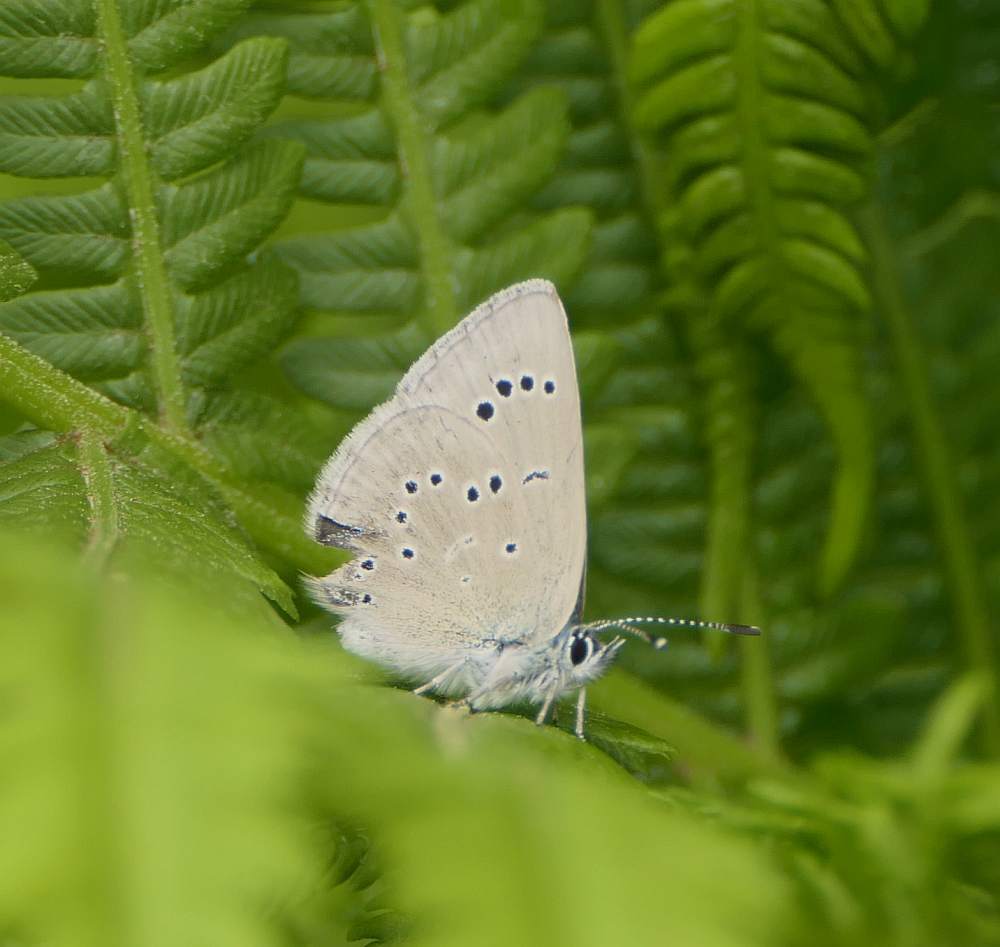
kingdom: Animalia
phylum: Arthropoda
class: Insecta
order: Lepidoptera
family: Lycaenidae
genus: Glaucopsyche
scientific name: Glaucopsyche lygdamus
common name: Silvery blue
